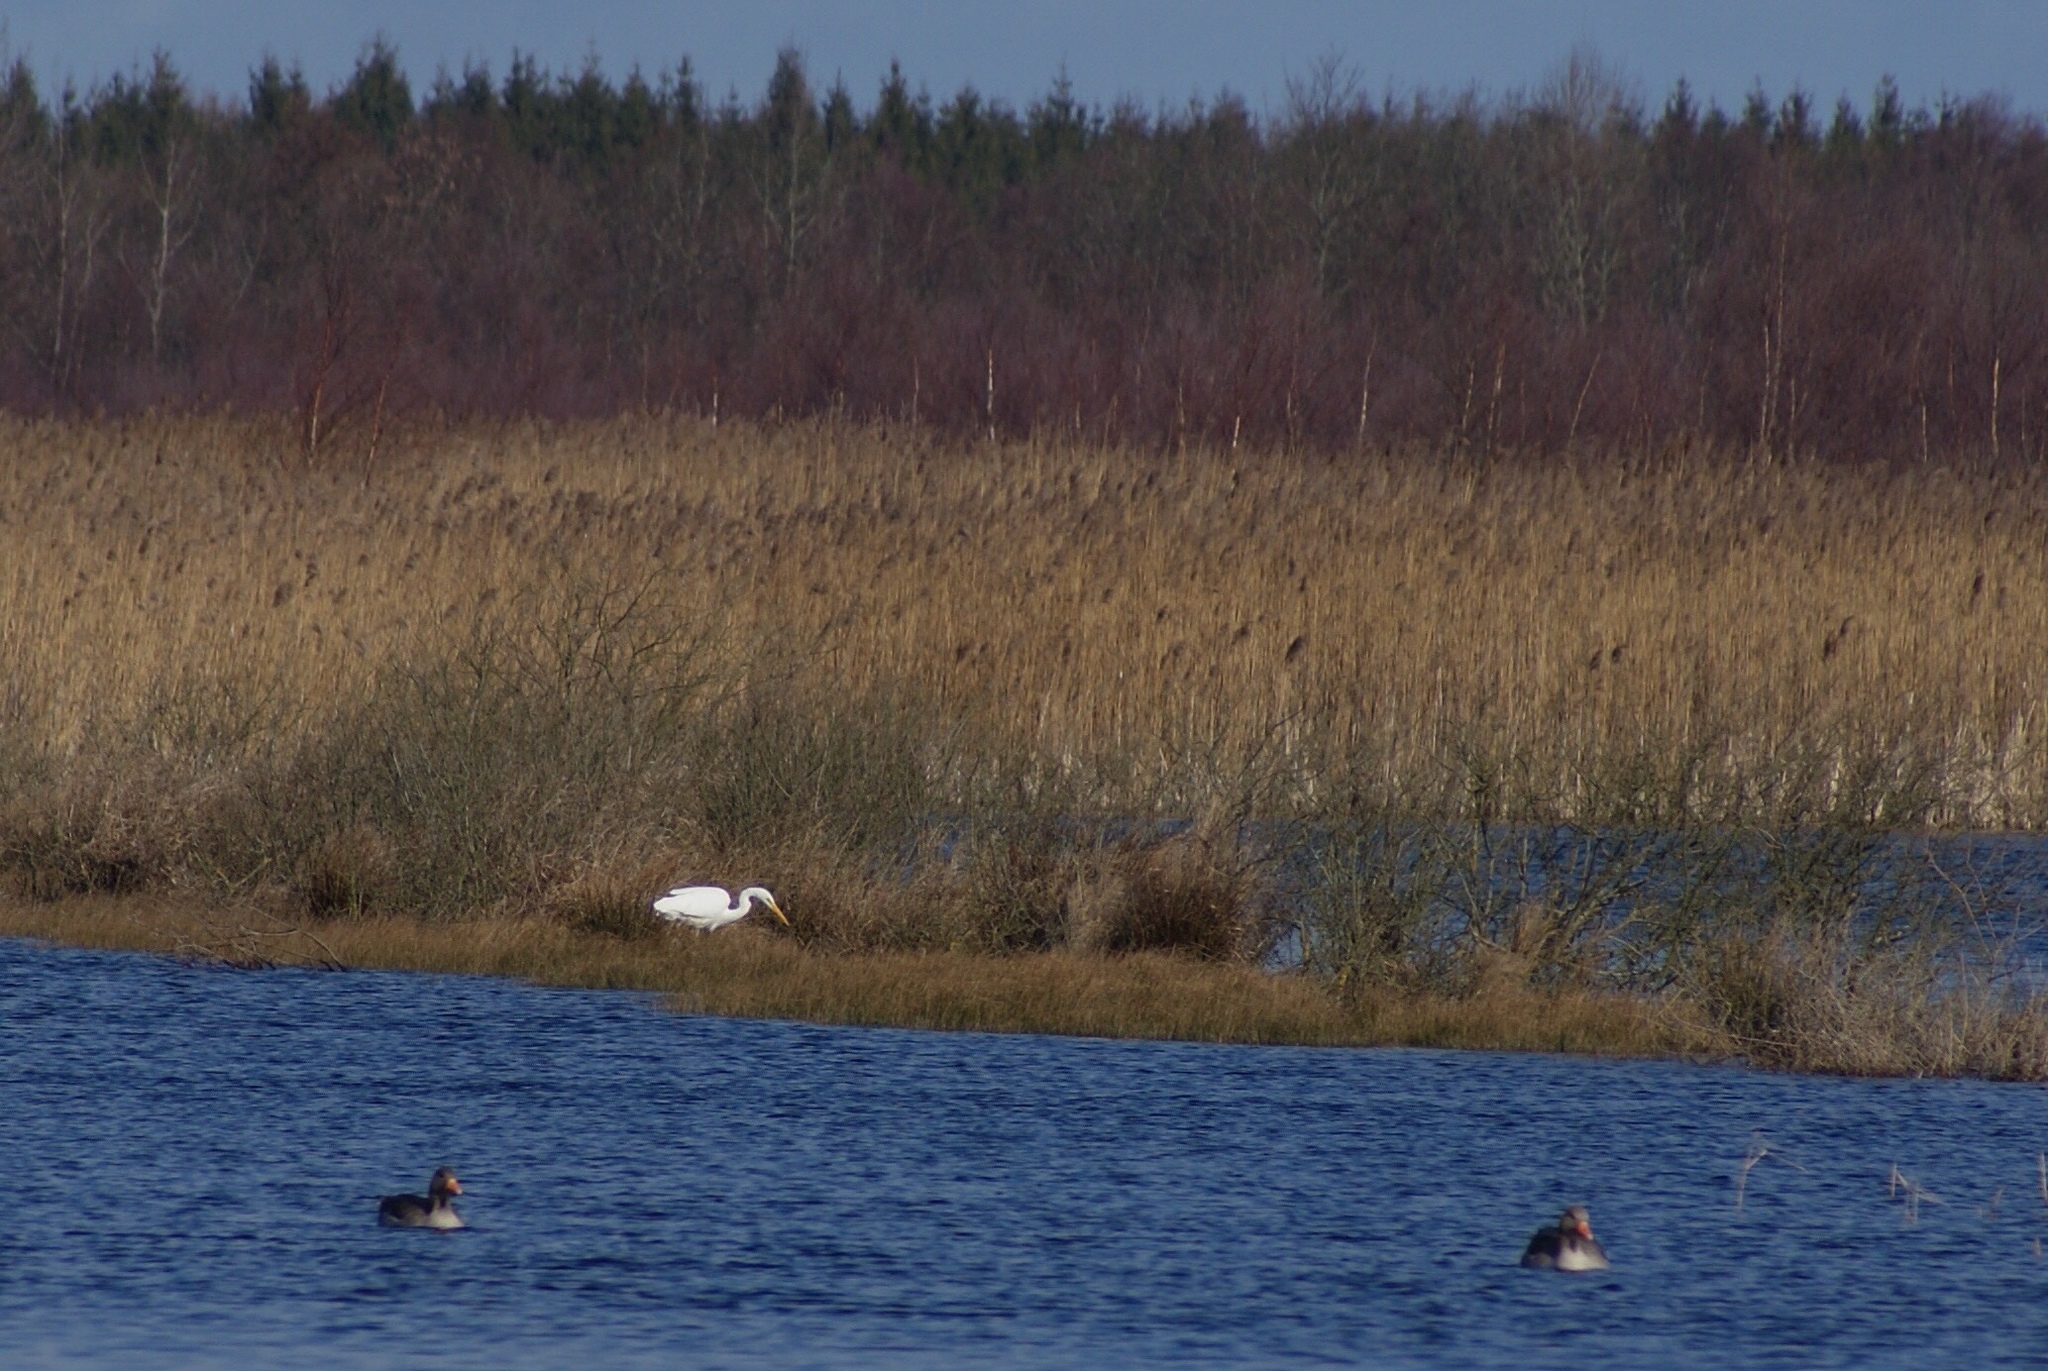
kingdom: Animalia
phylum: Chordata
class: Aves
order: Pelecaniformes
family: Ardeidae
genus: Ardea
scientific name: Ardea alba
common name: Great egret
